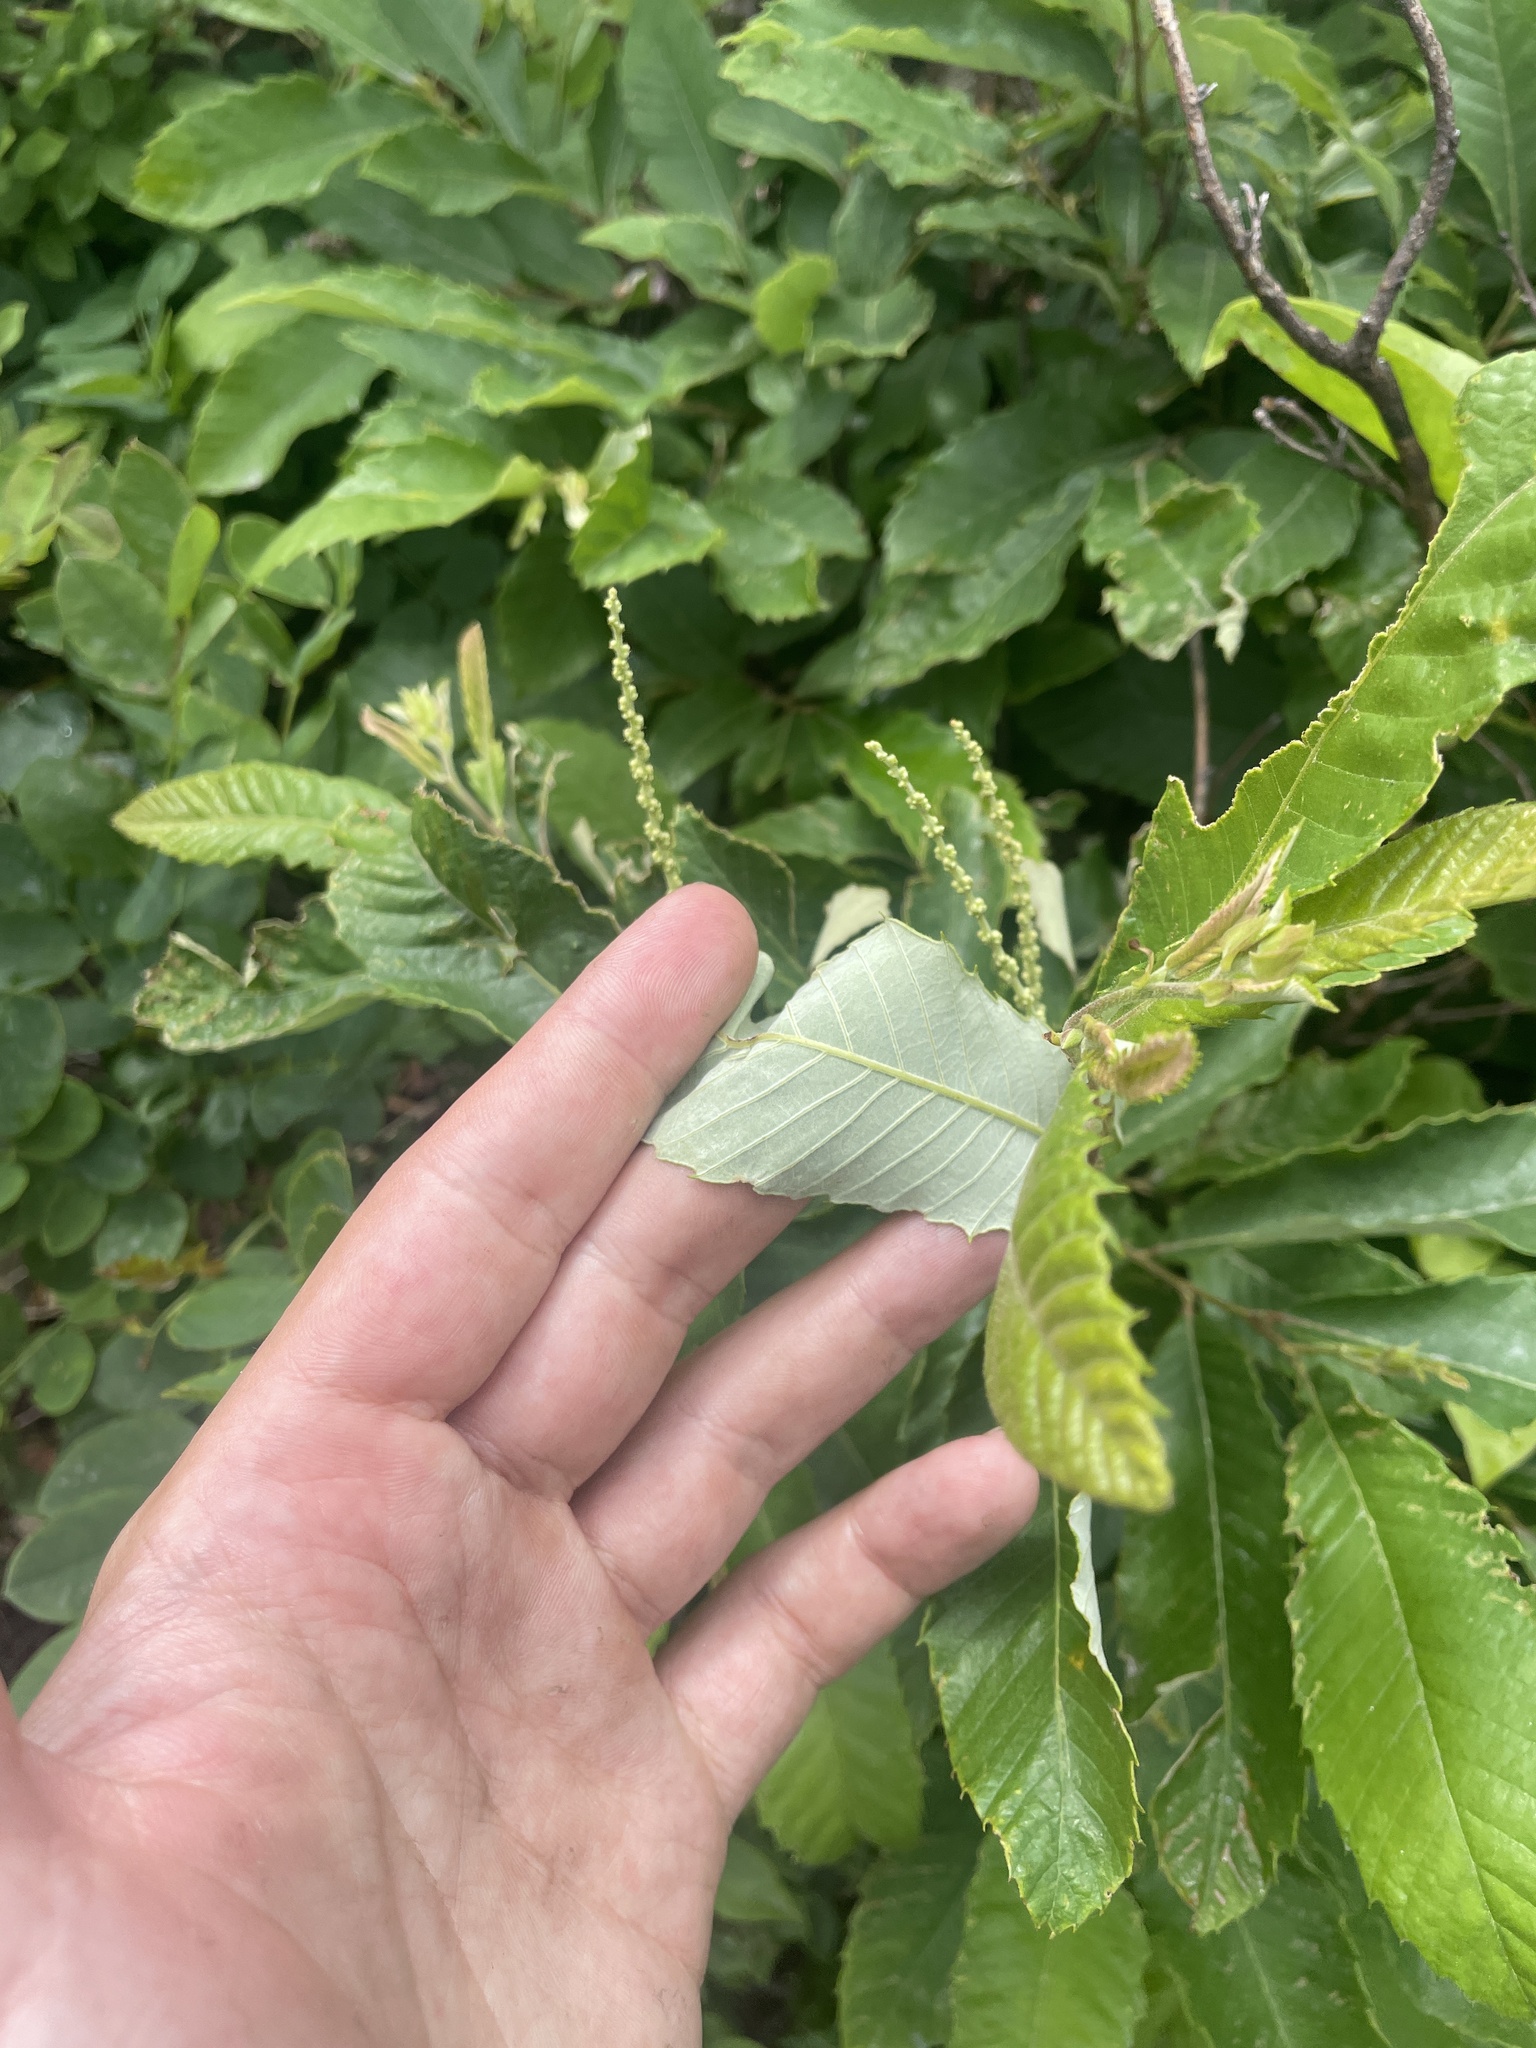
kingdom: Plantae
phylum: Tracheophyta
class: Magnoliopsida
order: Fagales
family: Fagaceae
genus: Castanea
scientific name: Castanea pumila
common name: Chinkapin
